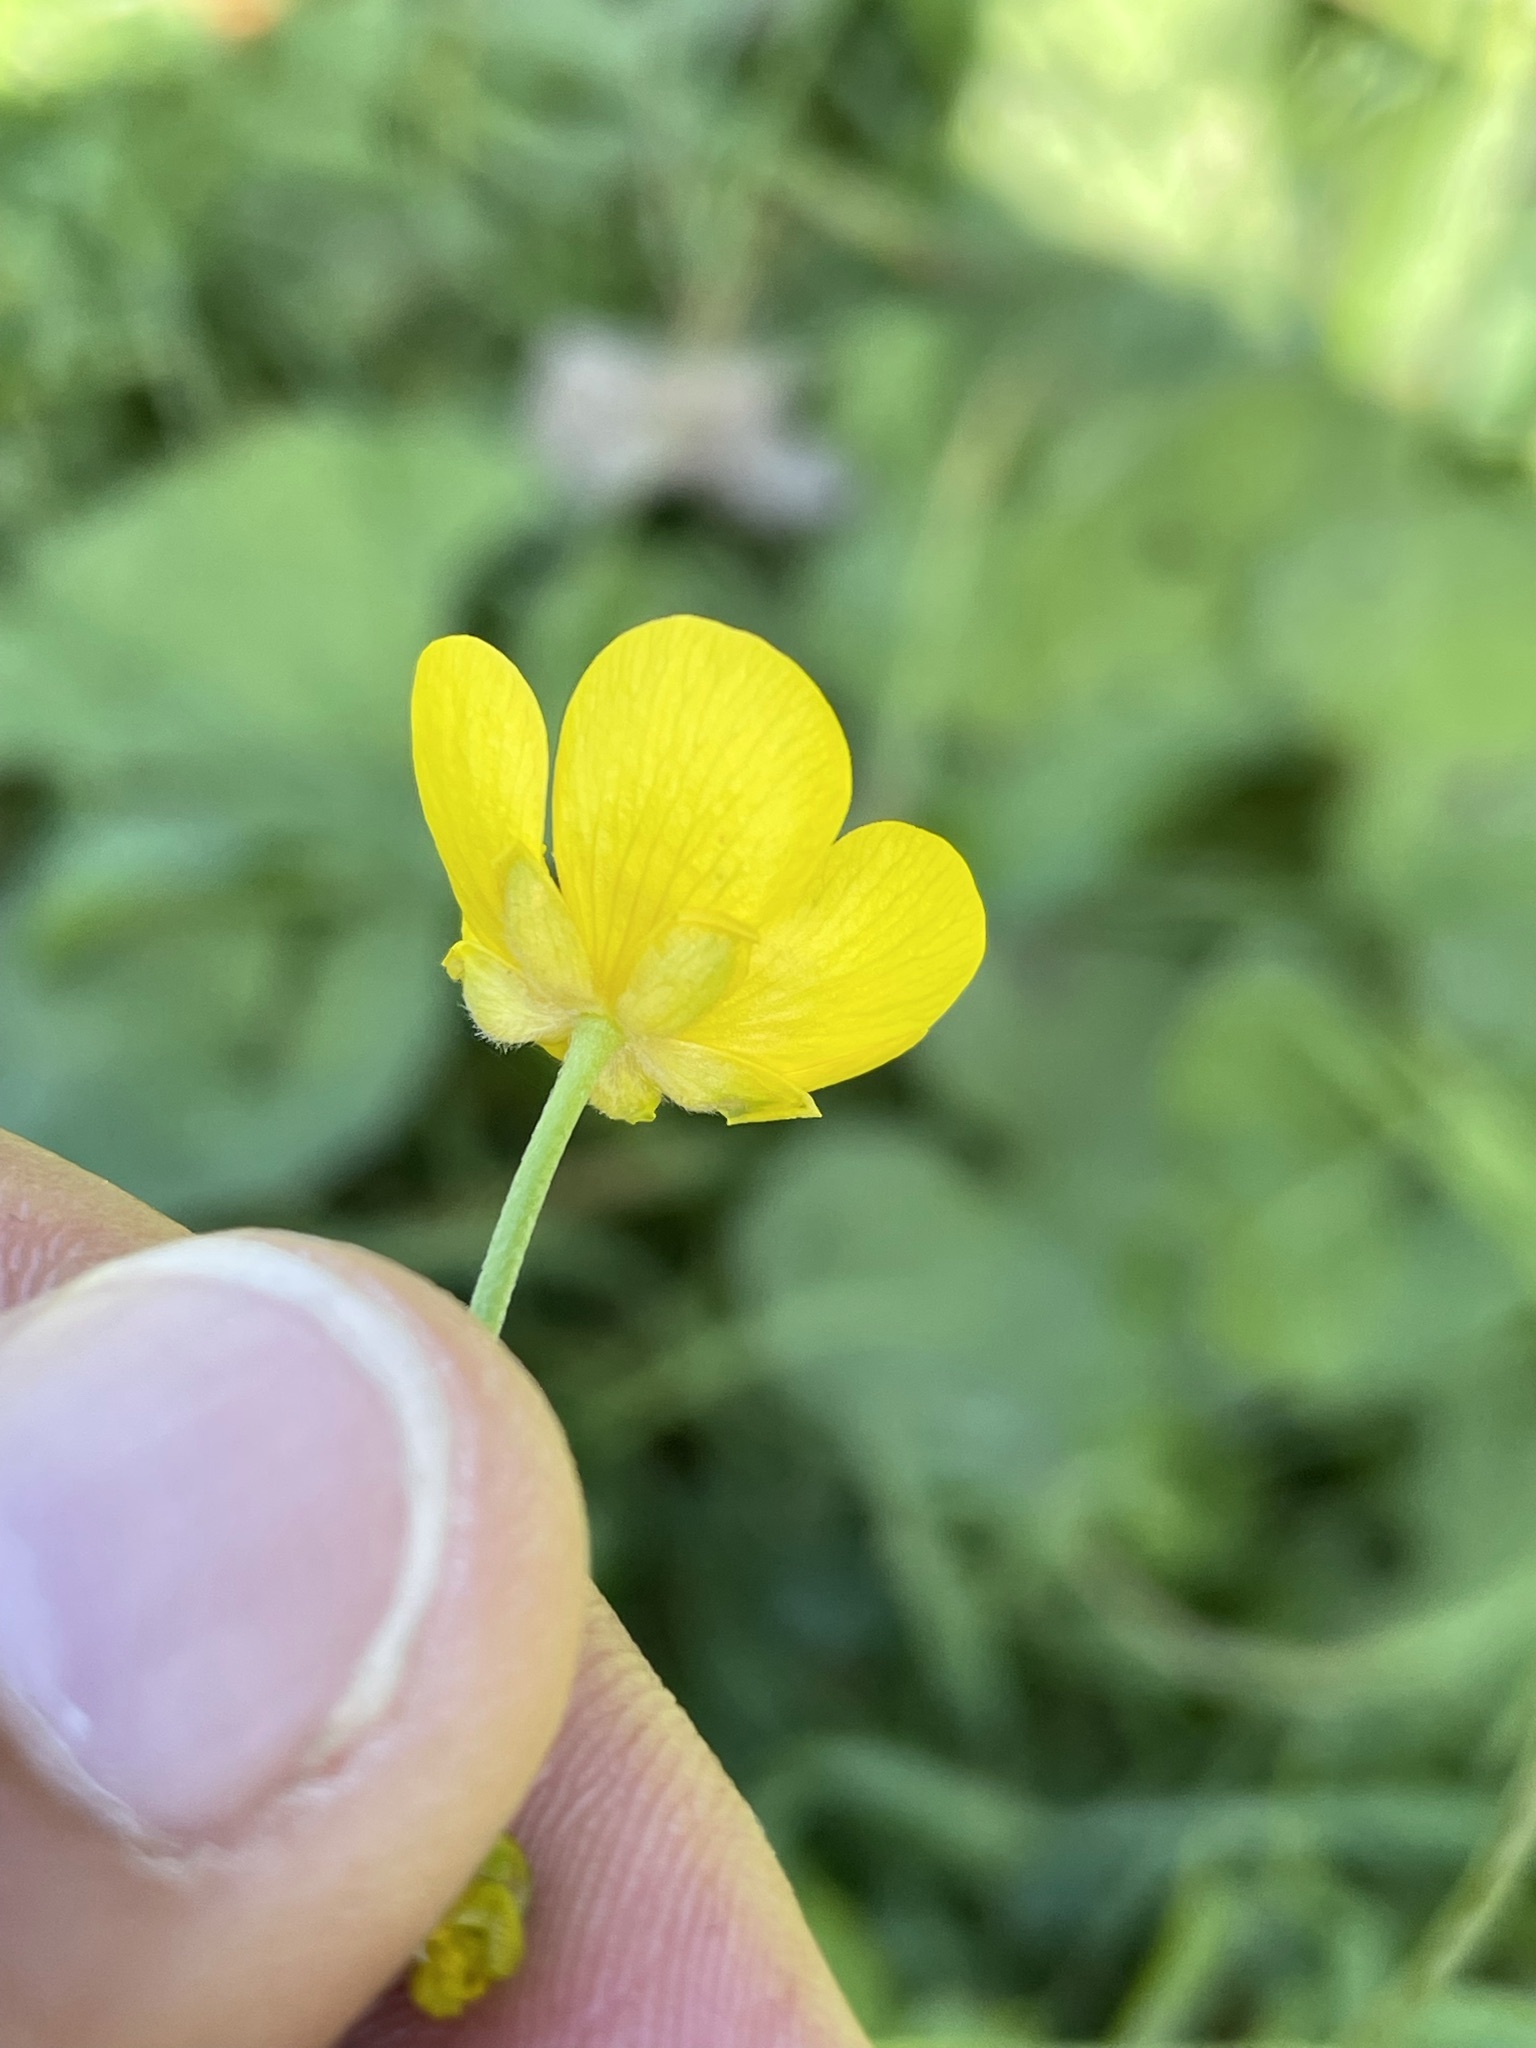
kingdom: Plantae
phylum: Tracheophyta
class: Magnoliopsida
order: Ranunculales
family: Ranunculaceae
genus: Ranunculus
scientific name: Ranunculus acris
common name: Meadow buttercup
